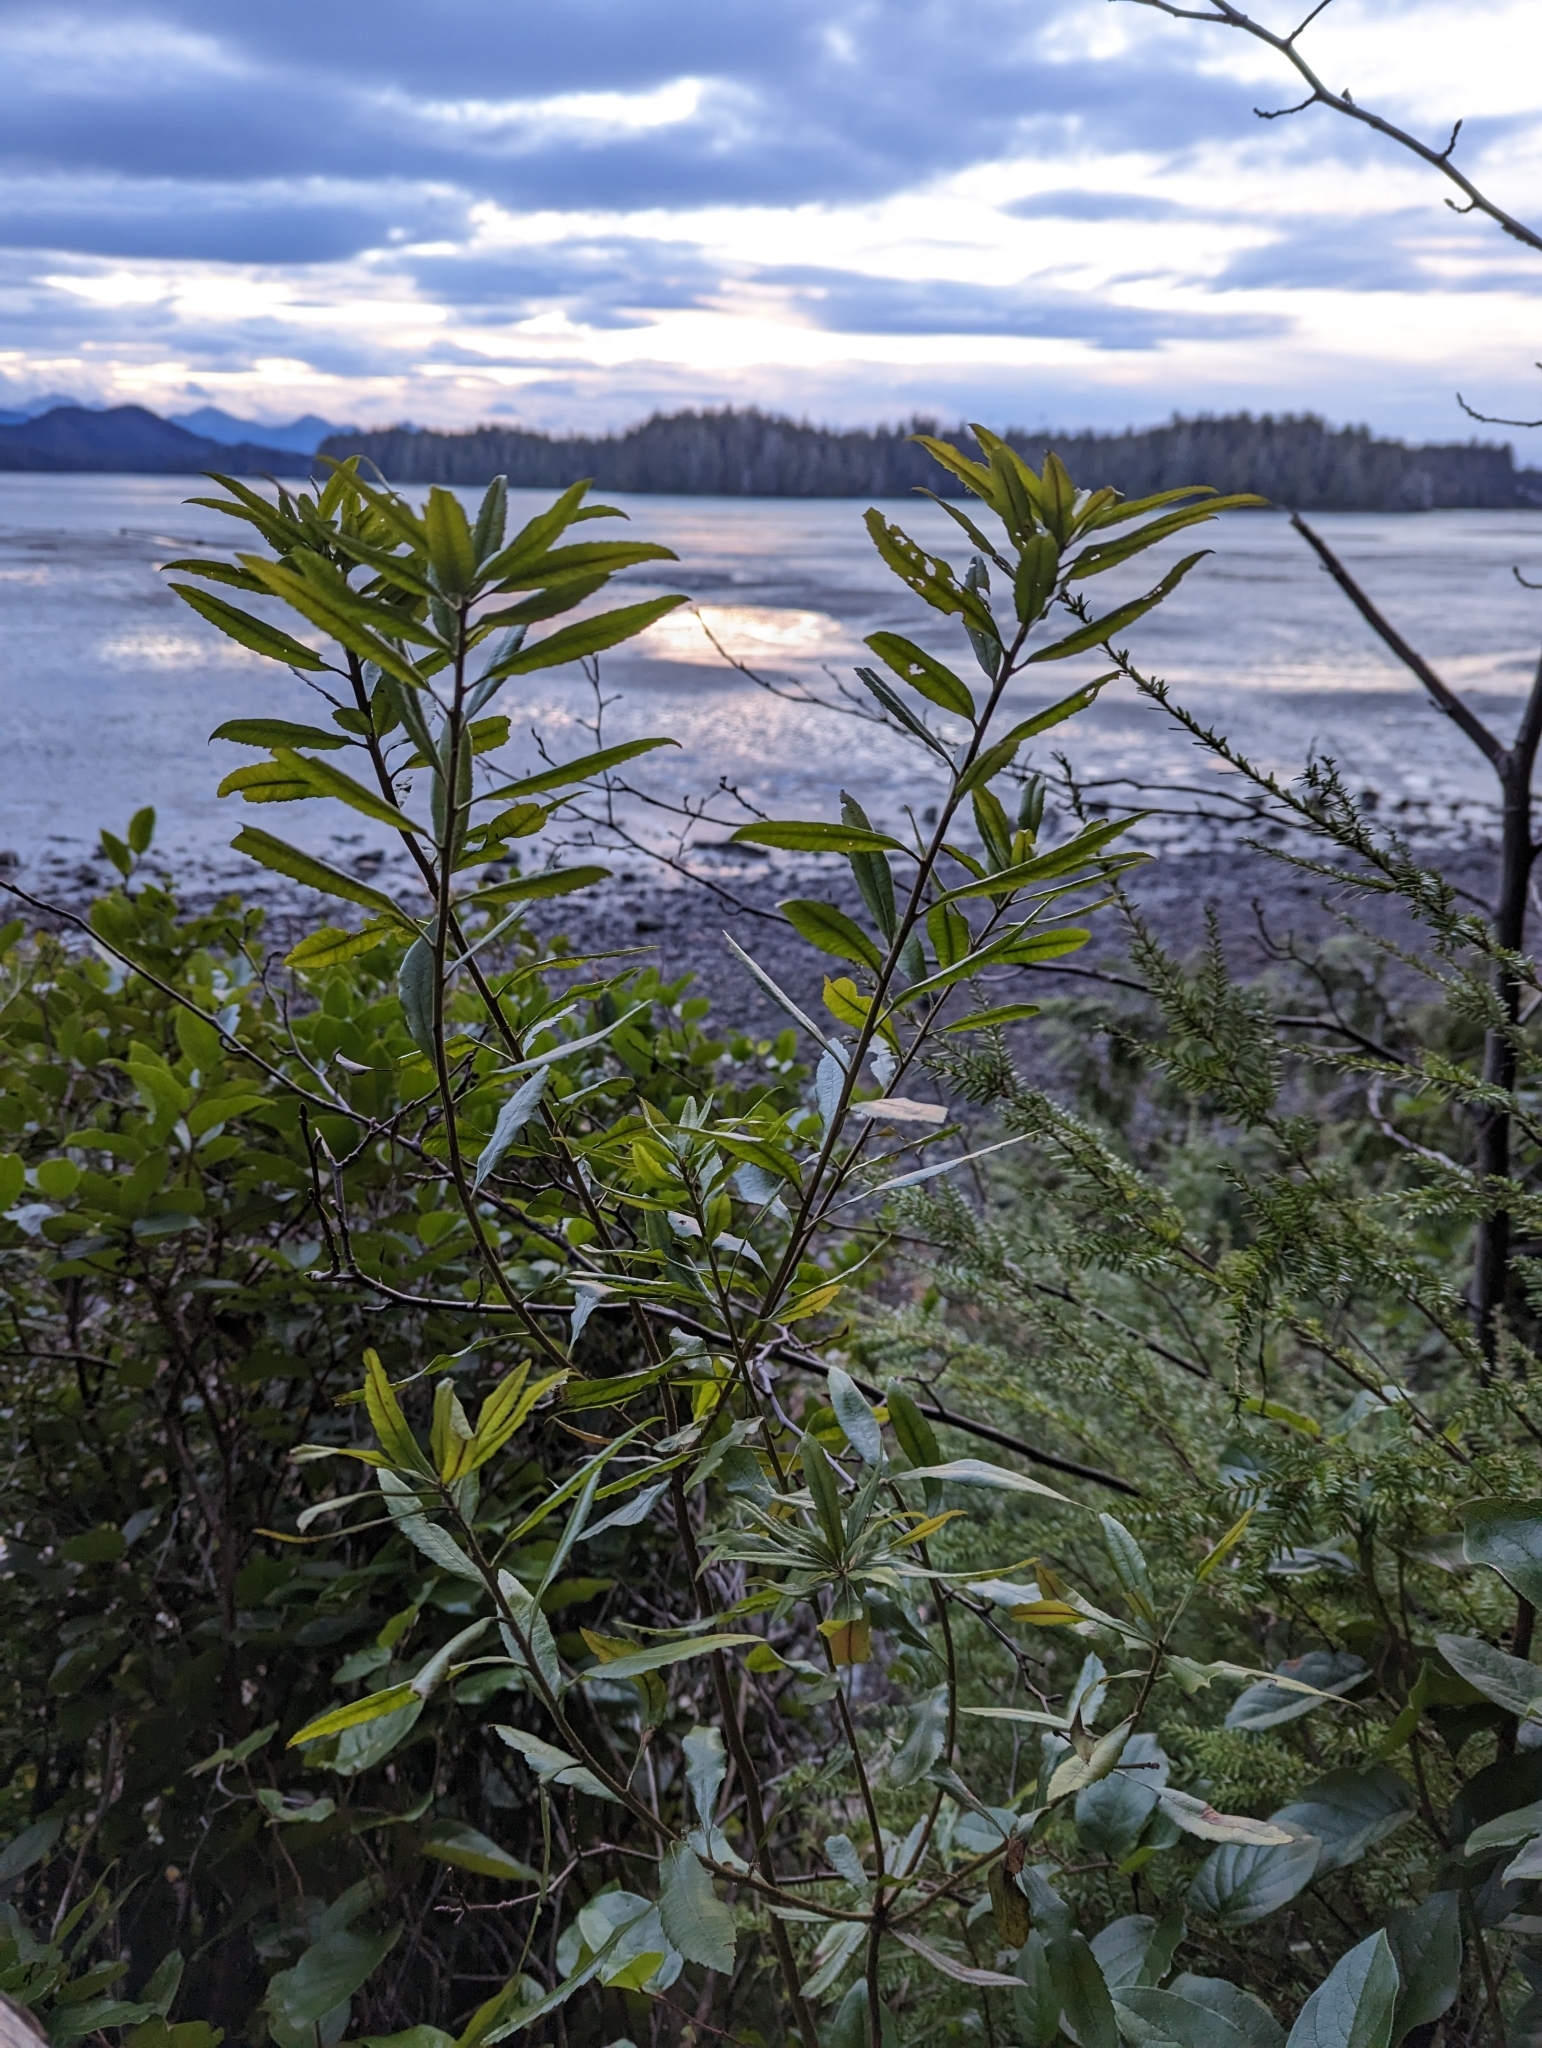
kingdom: Plantae
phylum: Tracheophyta
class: Magnoliopsida
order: Fagales
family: Myricaceae
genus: Morella
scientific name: Morella californica
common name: California wax-myrtle
